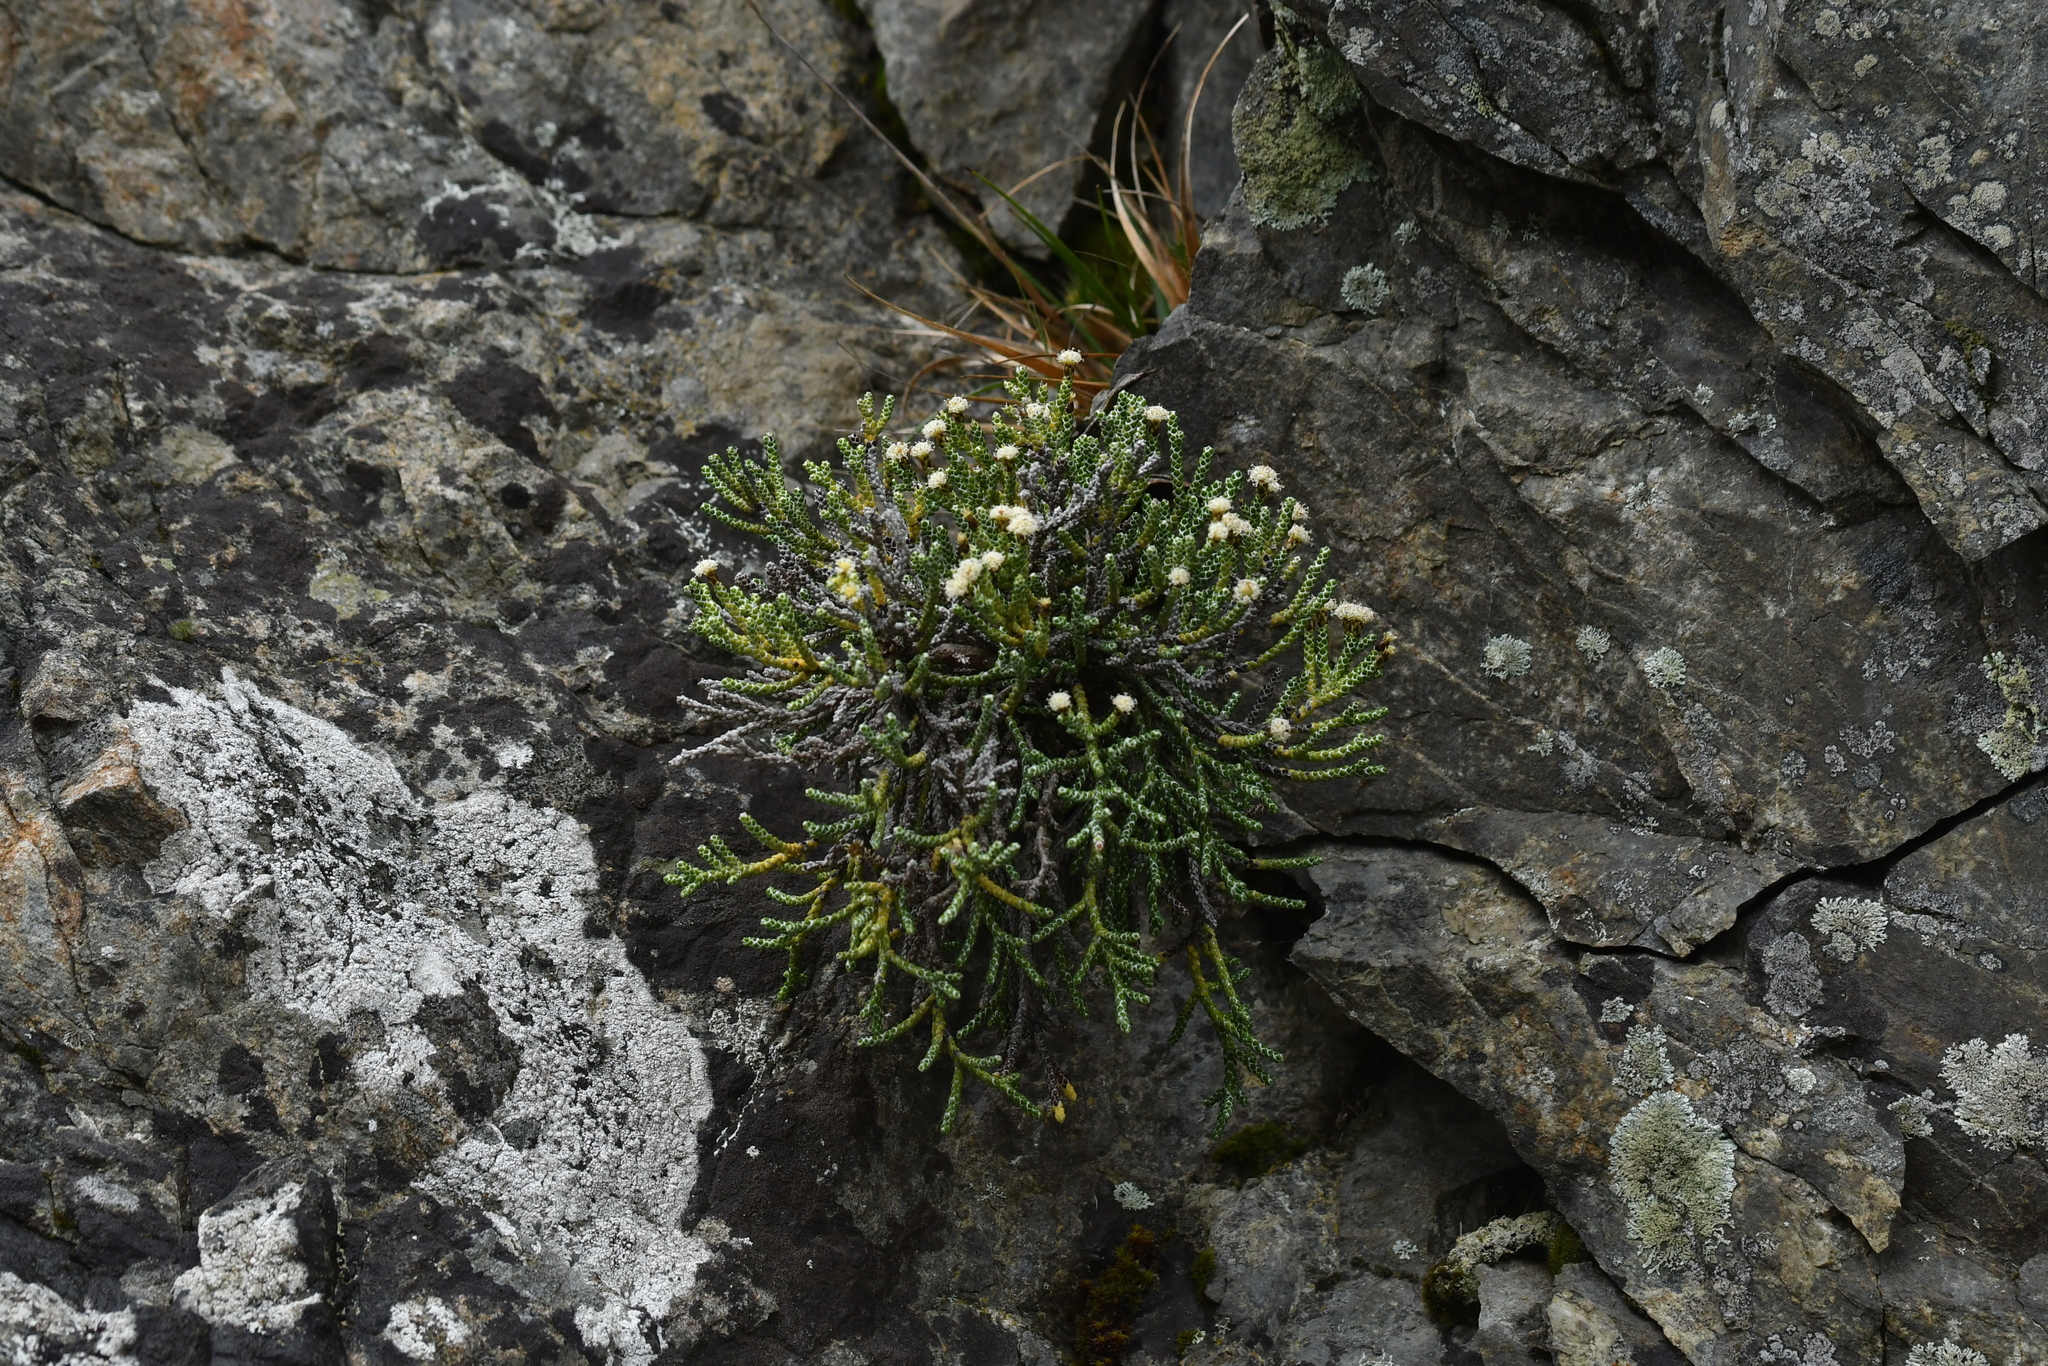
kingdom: Plantae
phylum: Tracheophyta
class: Magnoliopsida
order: Asterales
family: Asteraceae
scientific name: Asteraceae
